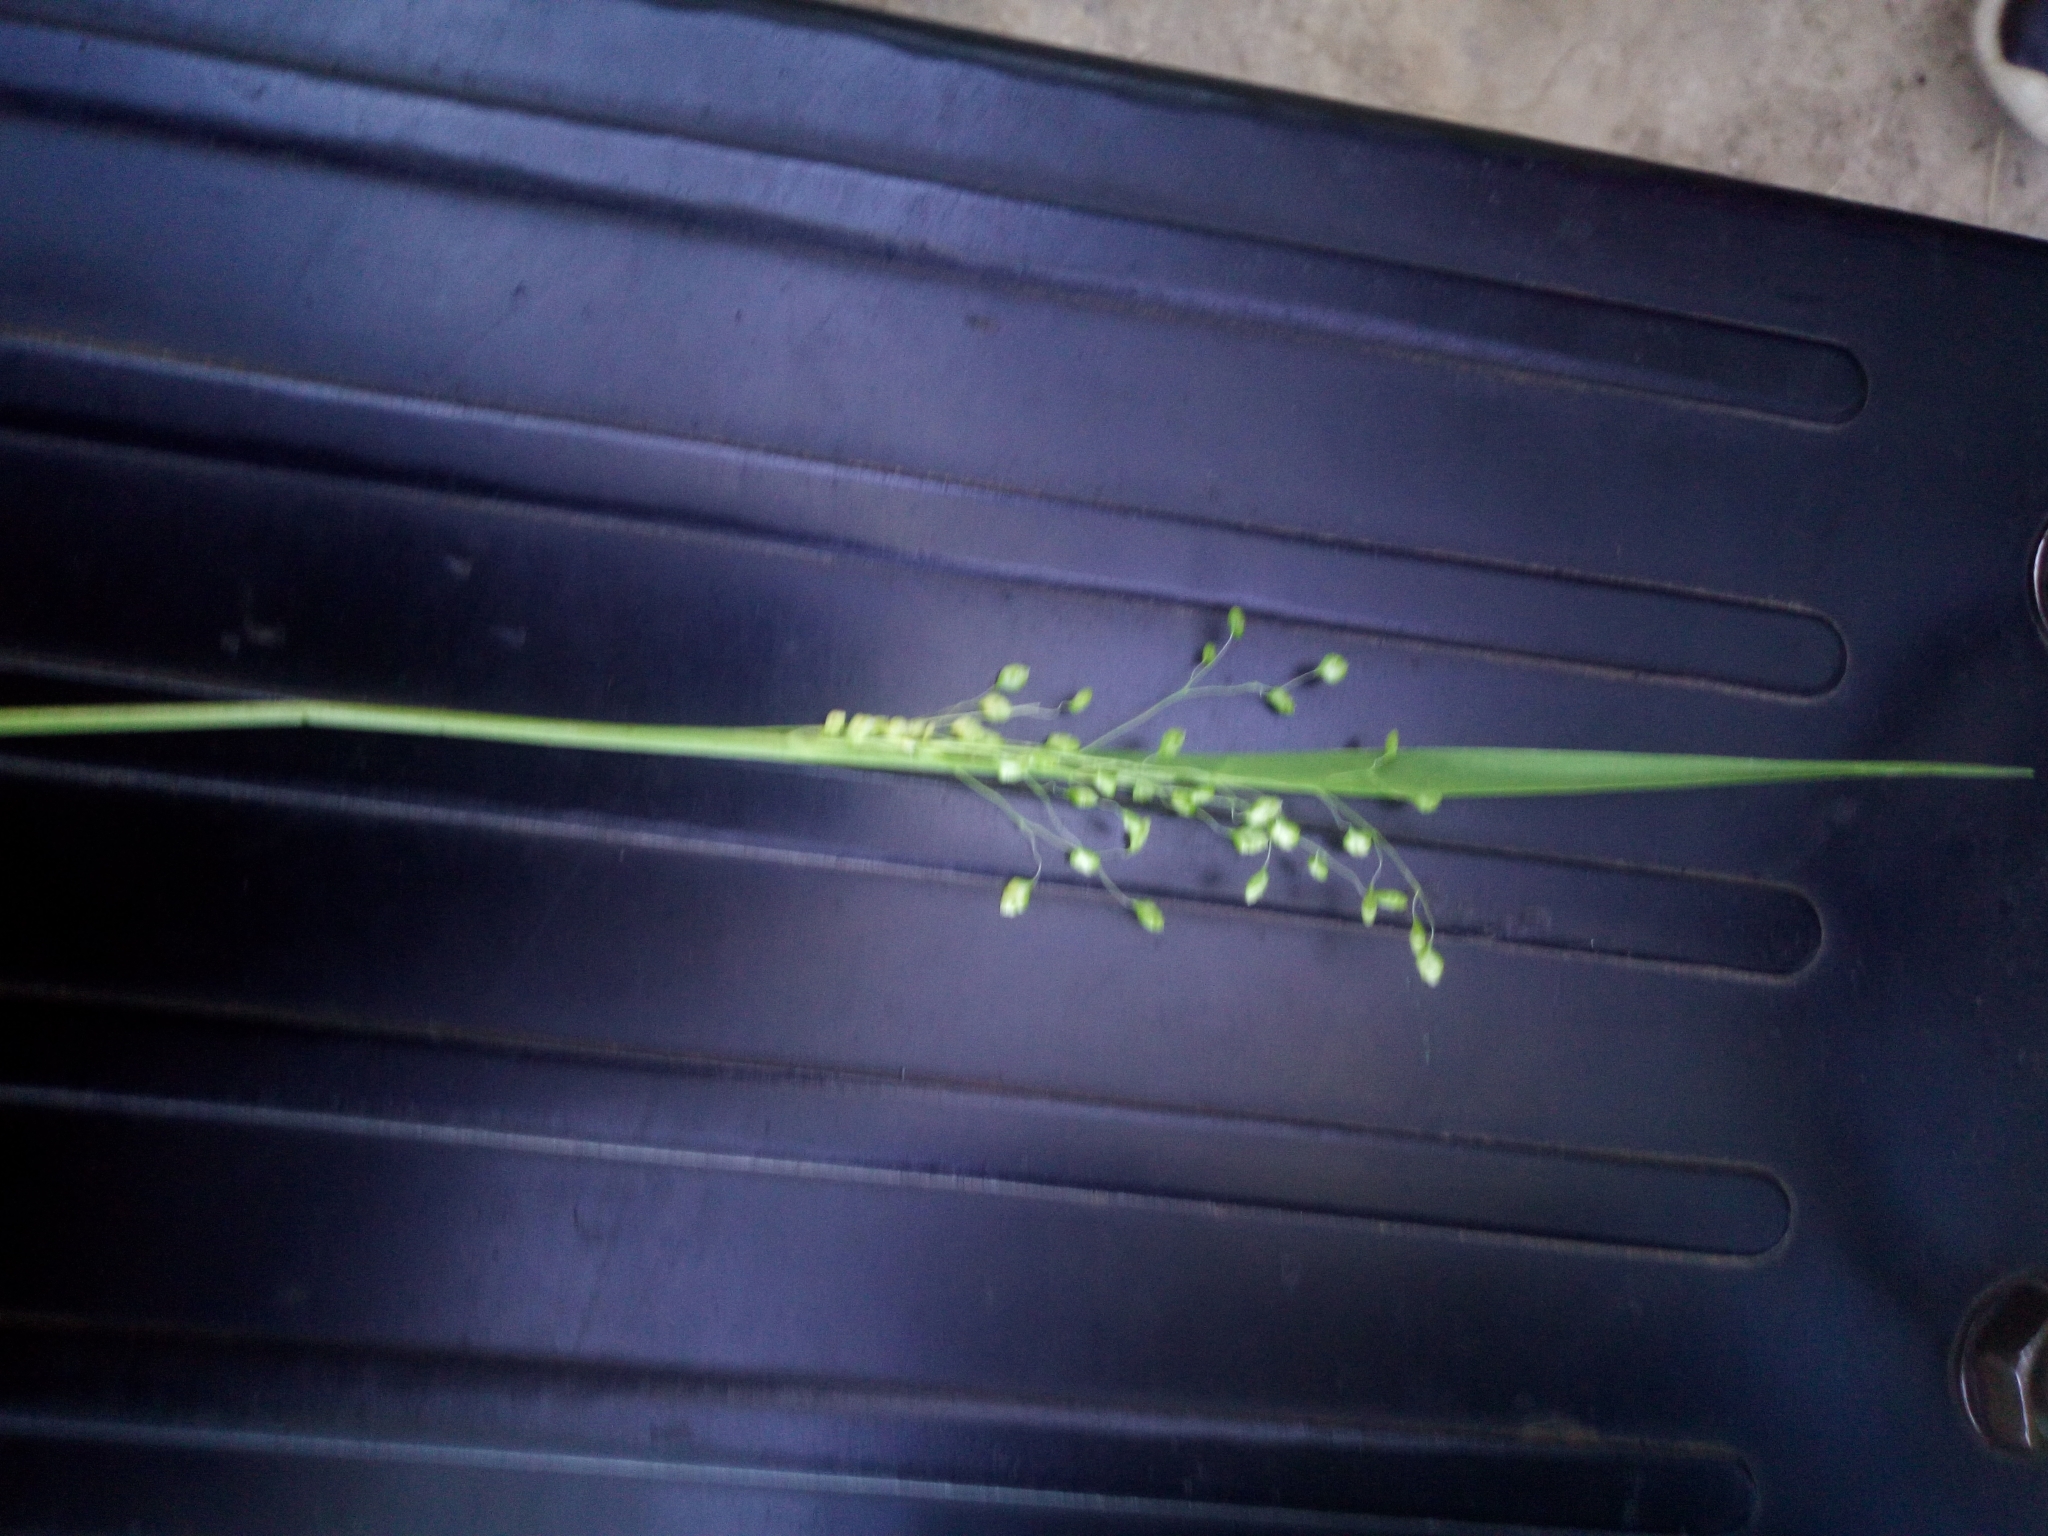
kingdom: Plantae
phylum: Tracheophyta
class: Liliopsida
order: Poales
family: Poaceae
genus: Briza
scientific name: Briza media
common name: Quaking grass
